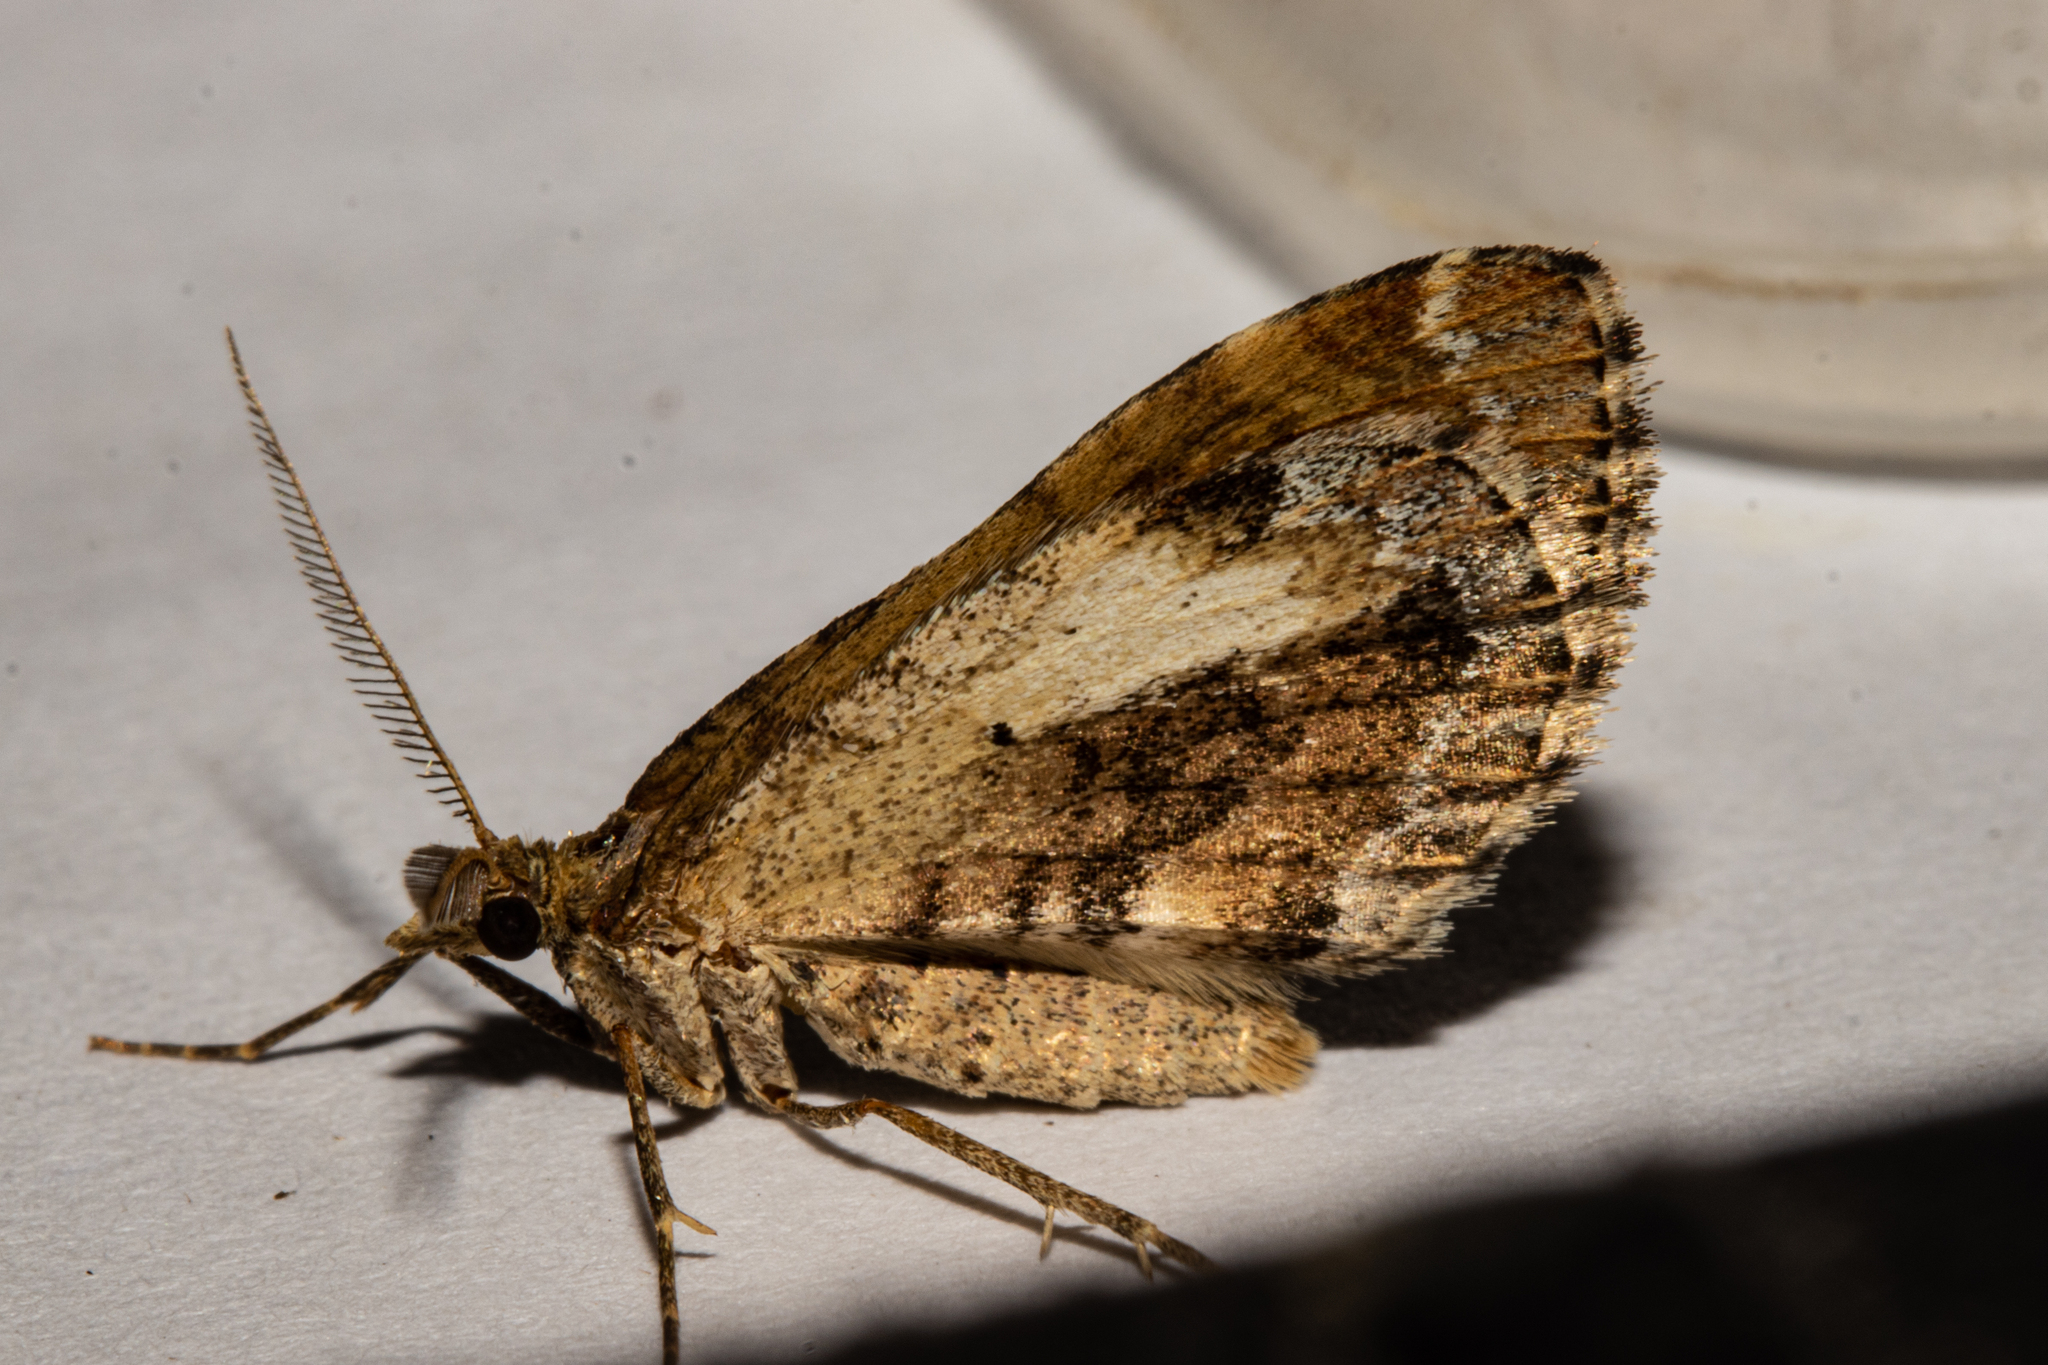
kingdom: Animalia
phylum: Arthropoda
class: Insecta
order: Lepidoptera
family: Geometridae
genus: Asaphodes
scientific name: Asaphodes aegrota
